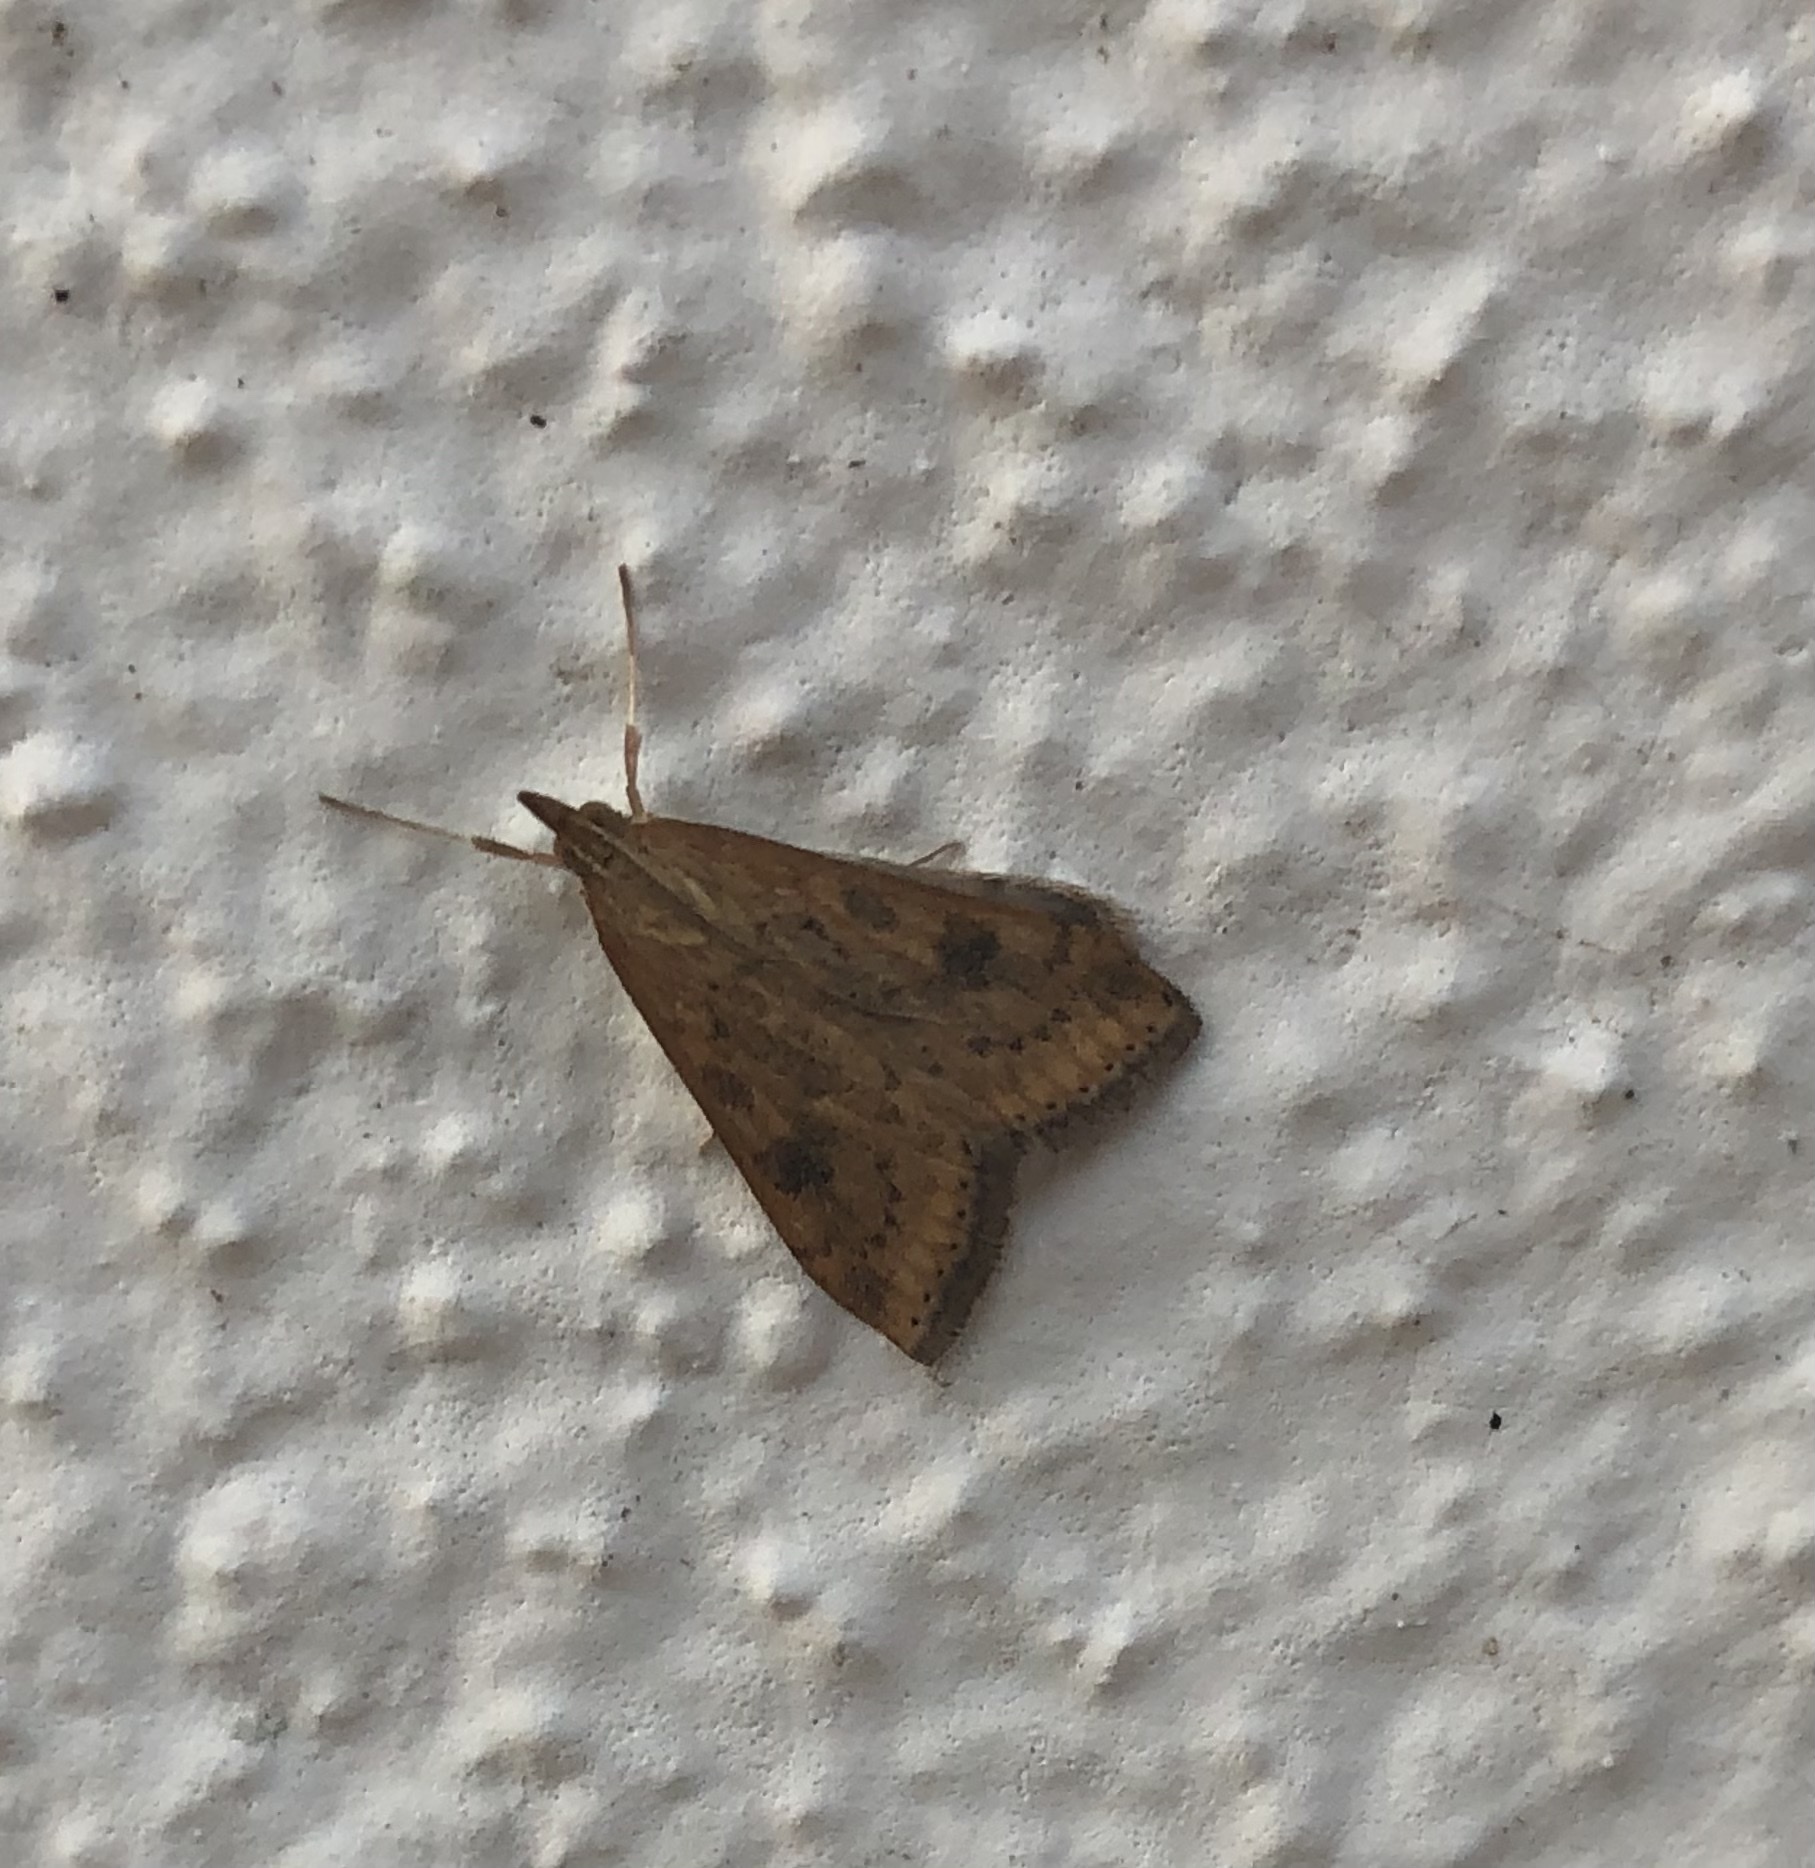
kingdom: Animalia
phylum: Arthropoda
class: Insecta
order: Lepidoptera
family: Crambidae
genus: Udea
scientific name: Udea ferrugalis
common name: Rusty dot
